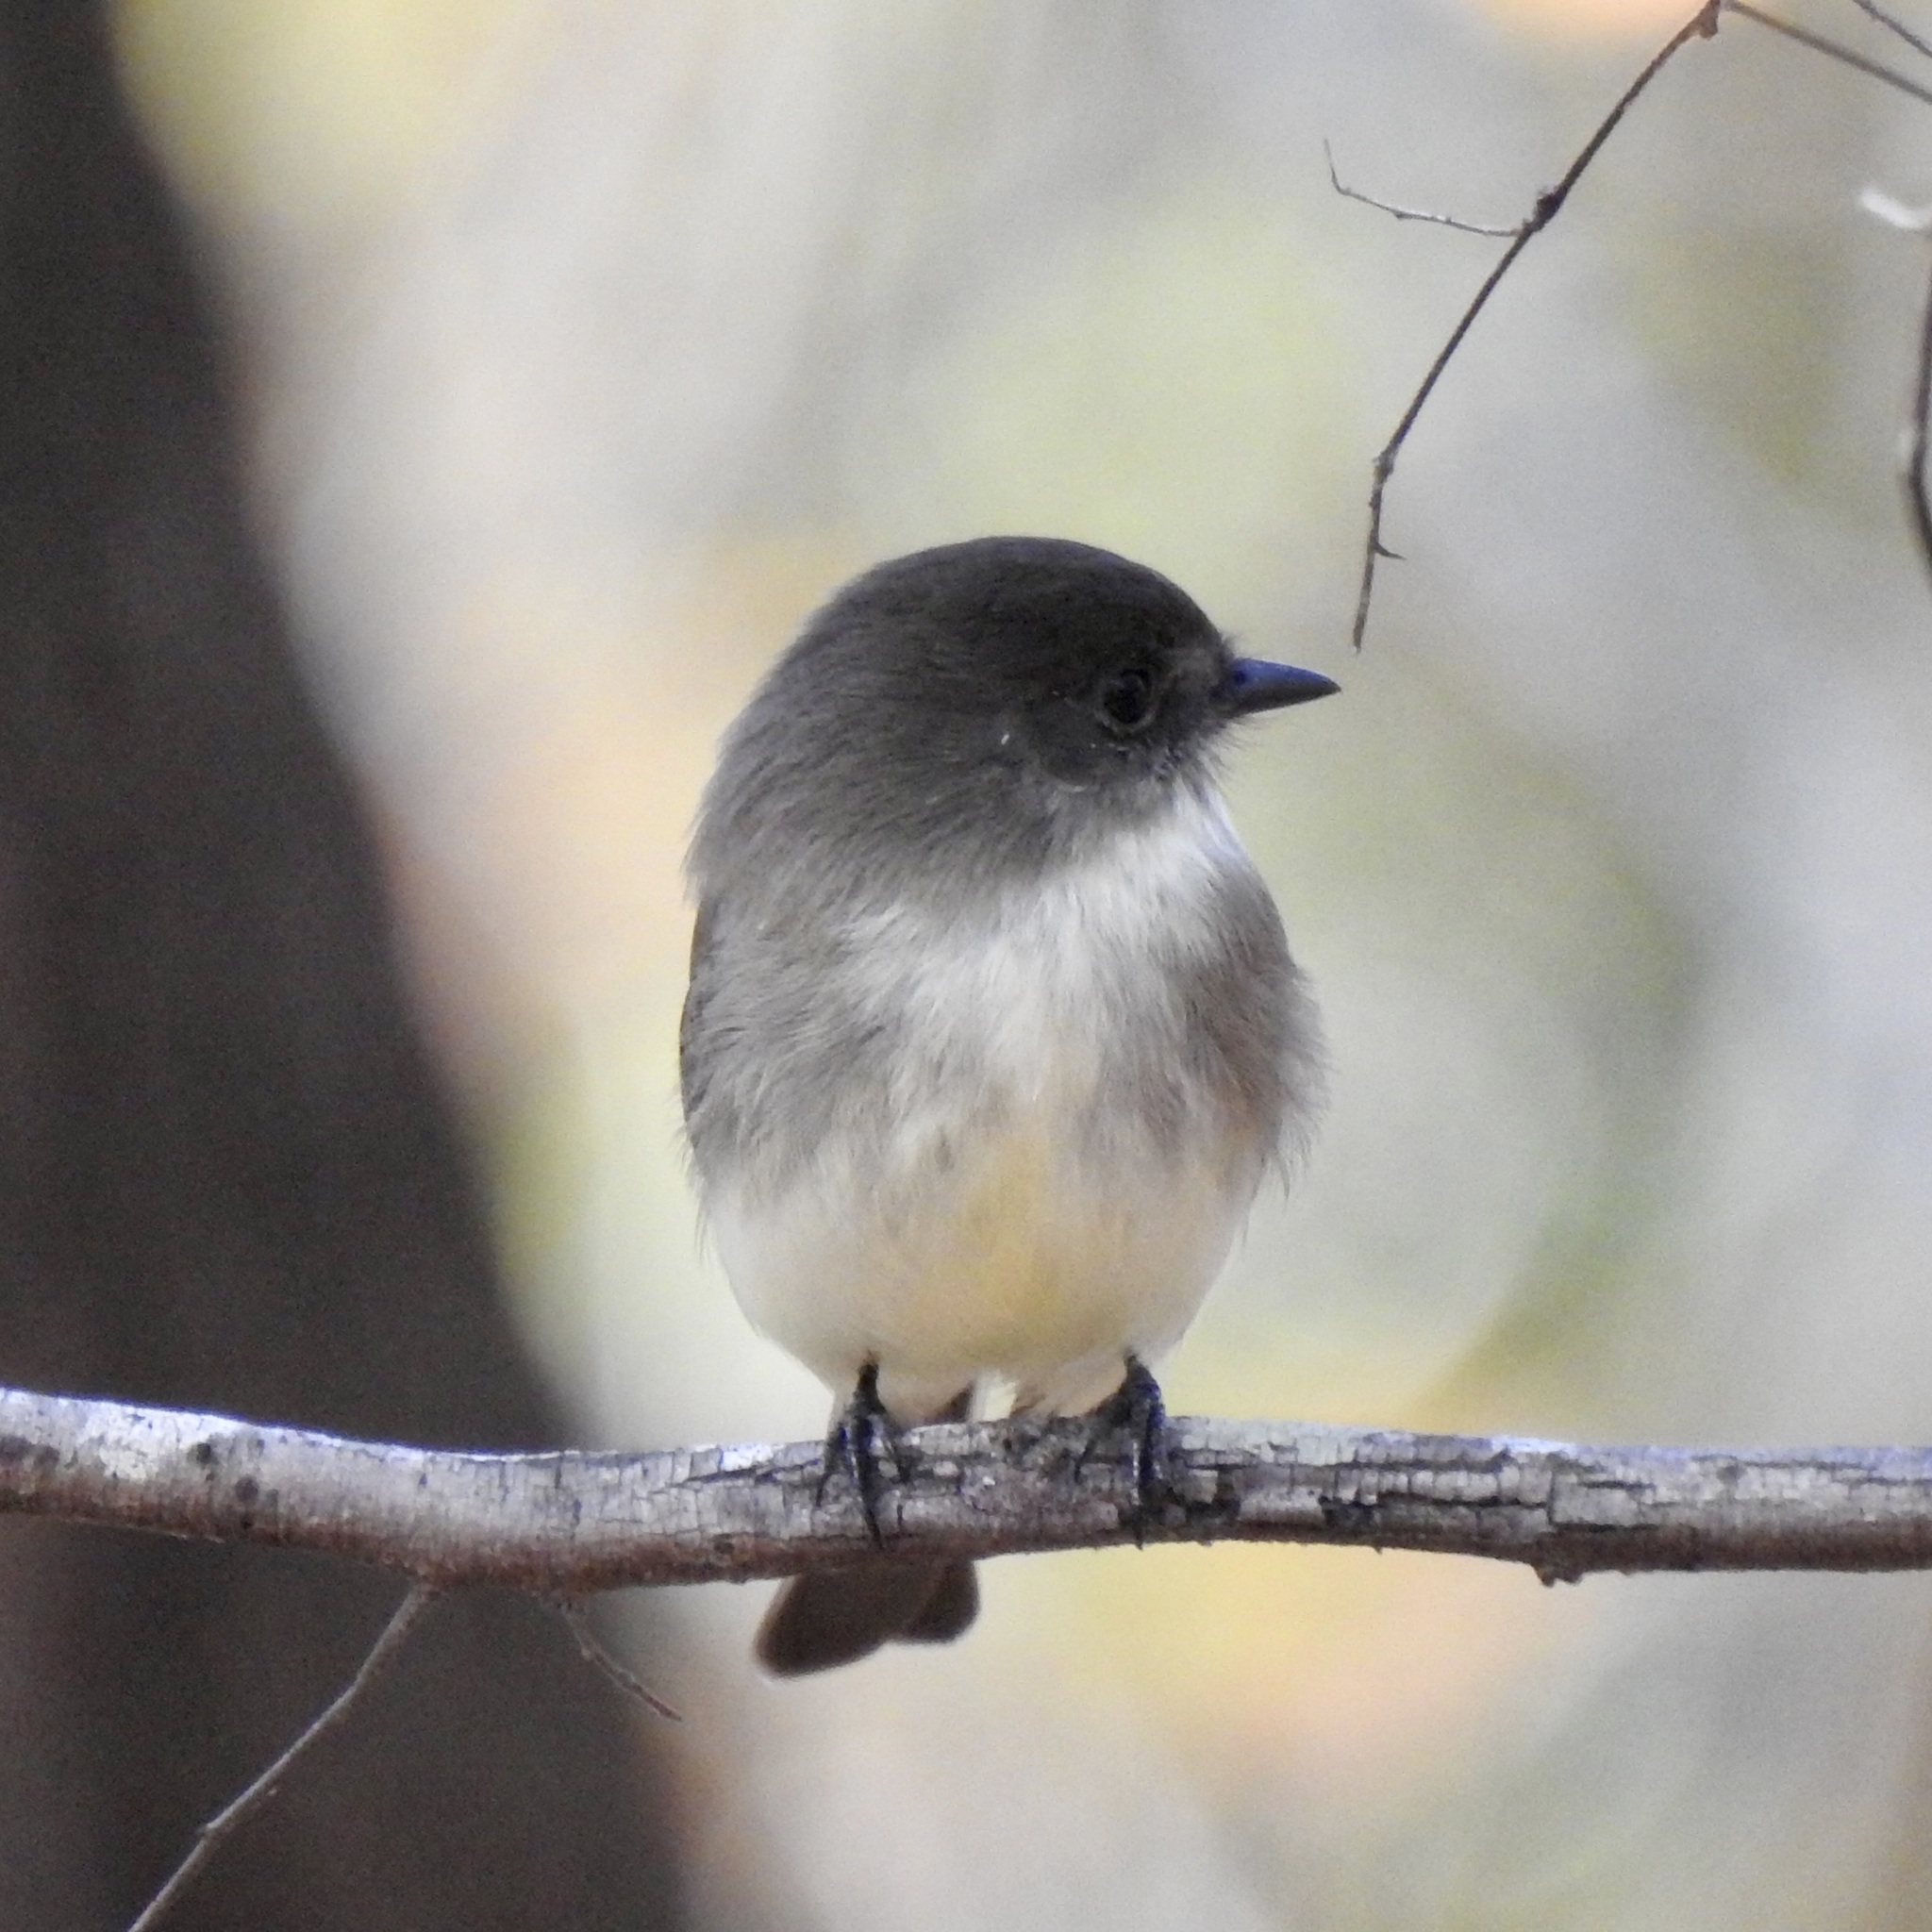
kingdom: Animalia
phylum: Chordata
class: Aves
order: Passeriformes
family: Tyrannidae
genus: Sayornis
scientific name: Sayornis phoebe
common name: Eastern phoebe
